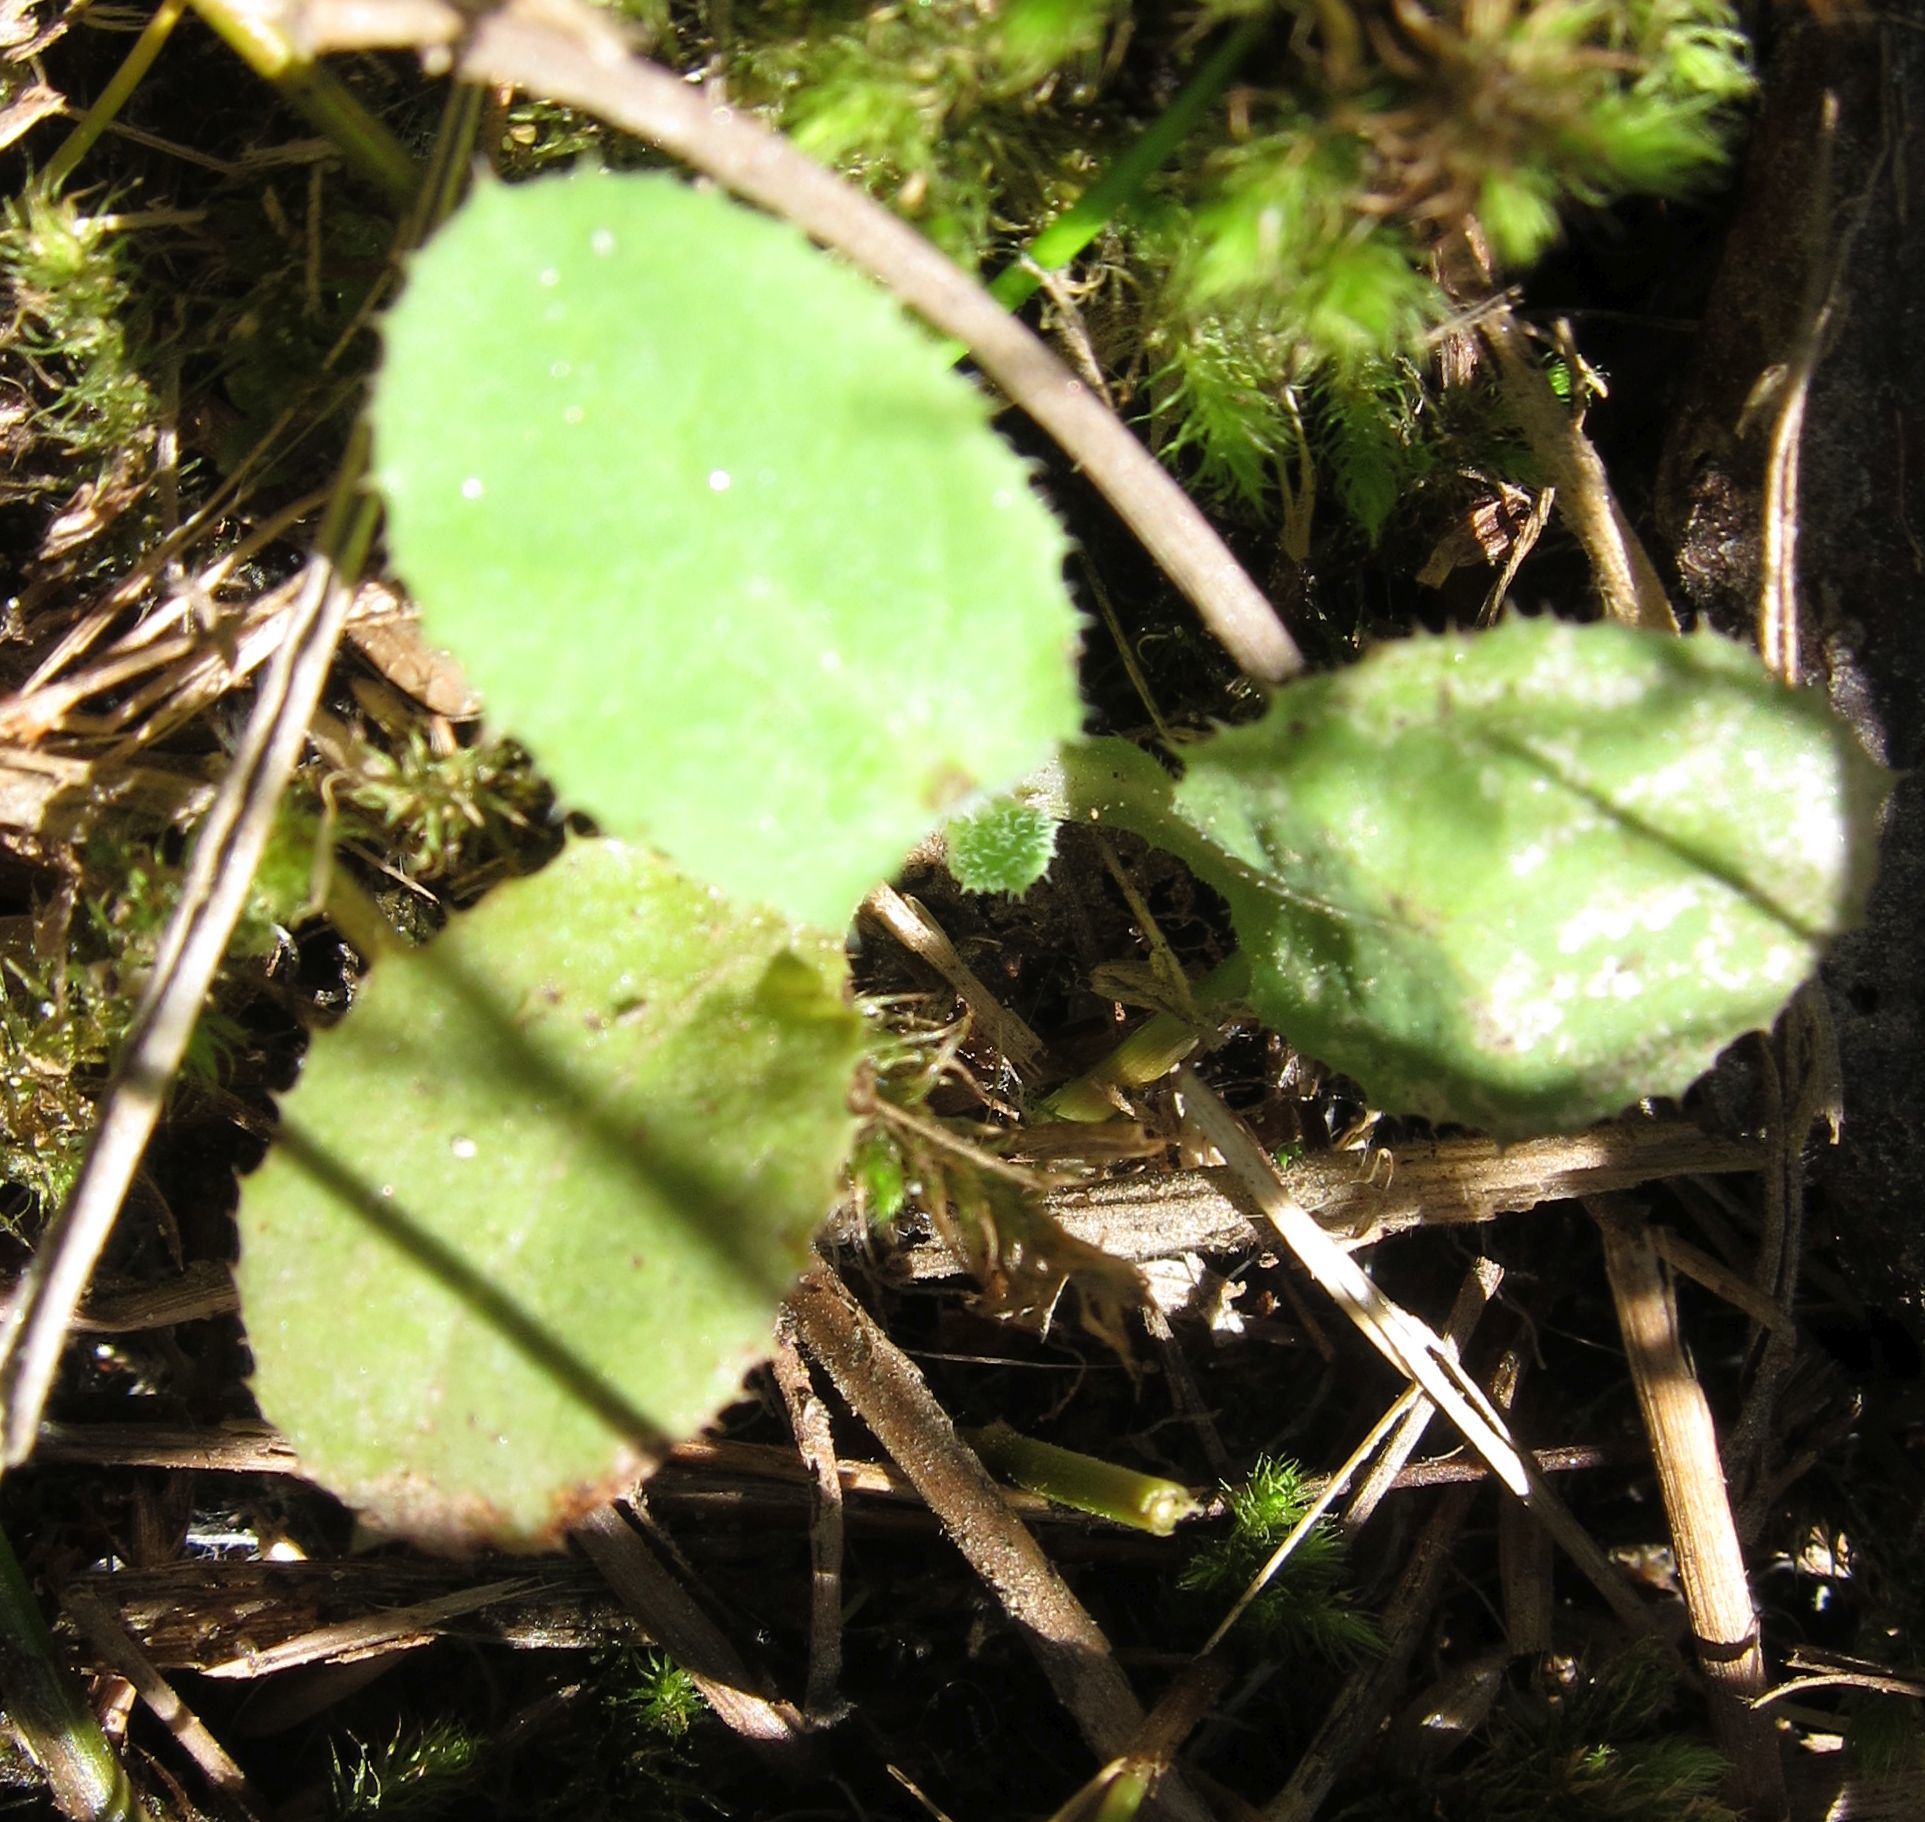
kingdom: Plantae
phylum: Tracheophyta
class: Magnoliopsida
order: Asterales
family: Asteraceae
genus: Sonchus
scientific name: Sonchus oleraceus
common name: Common sowthistle
